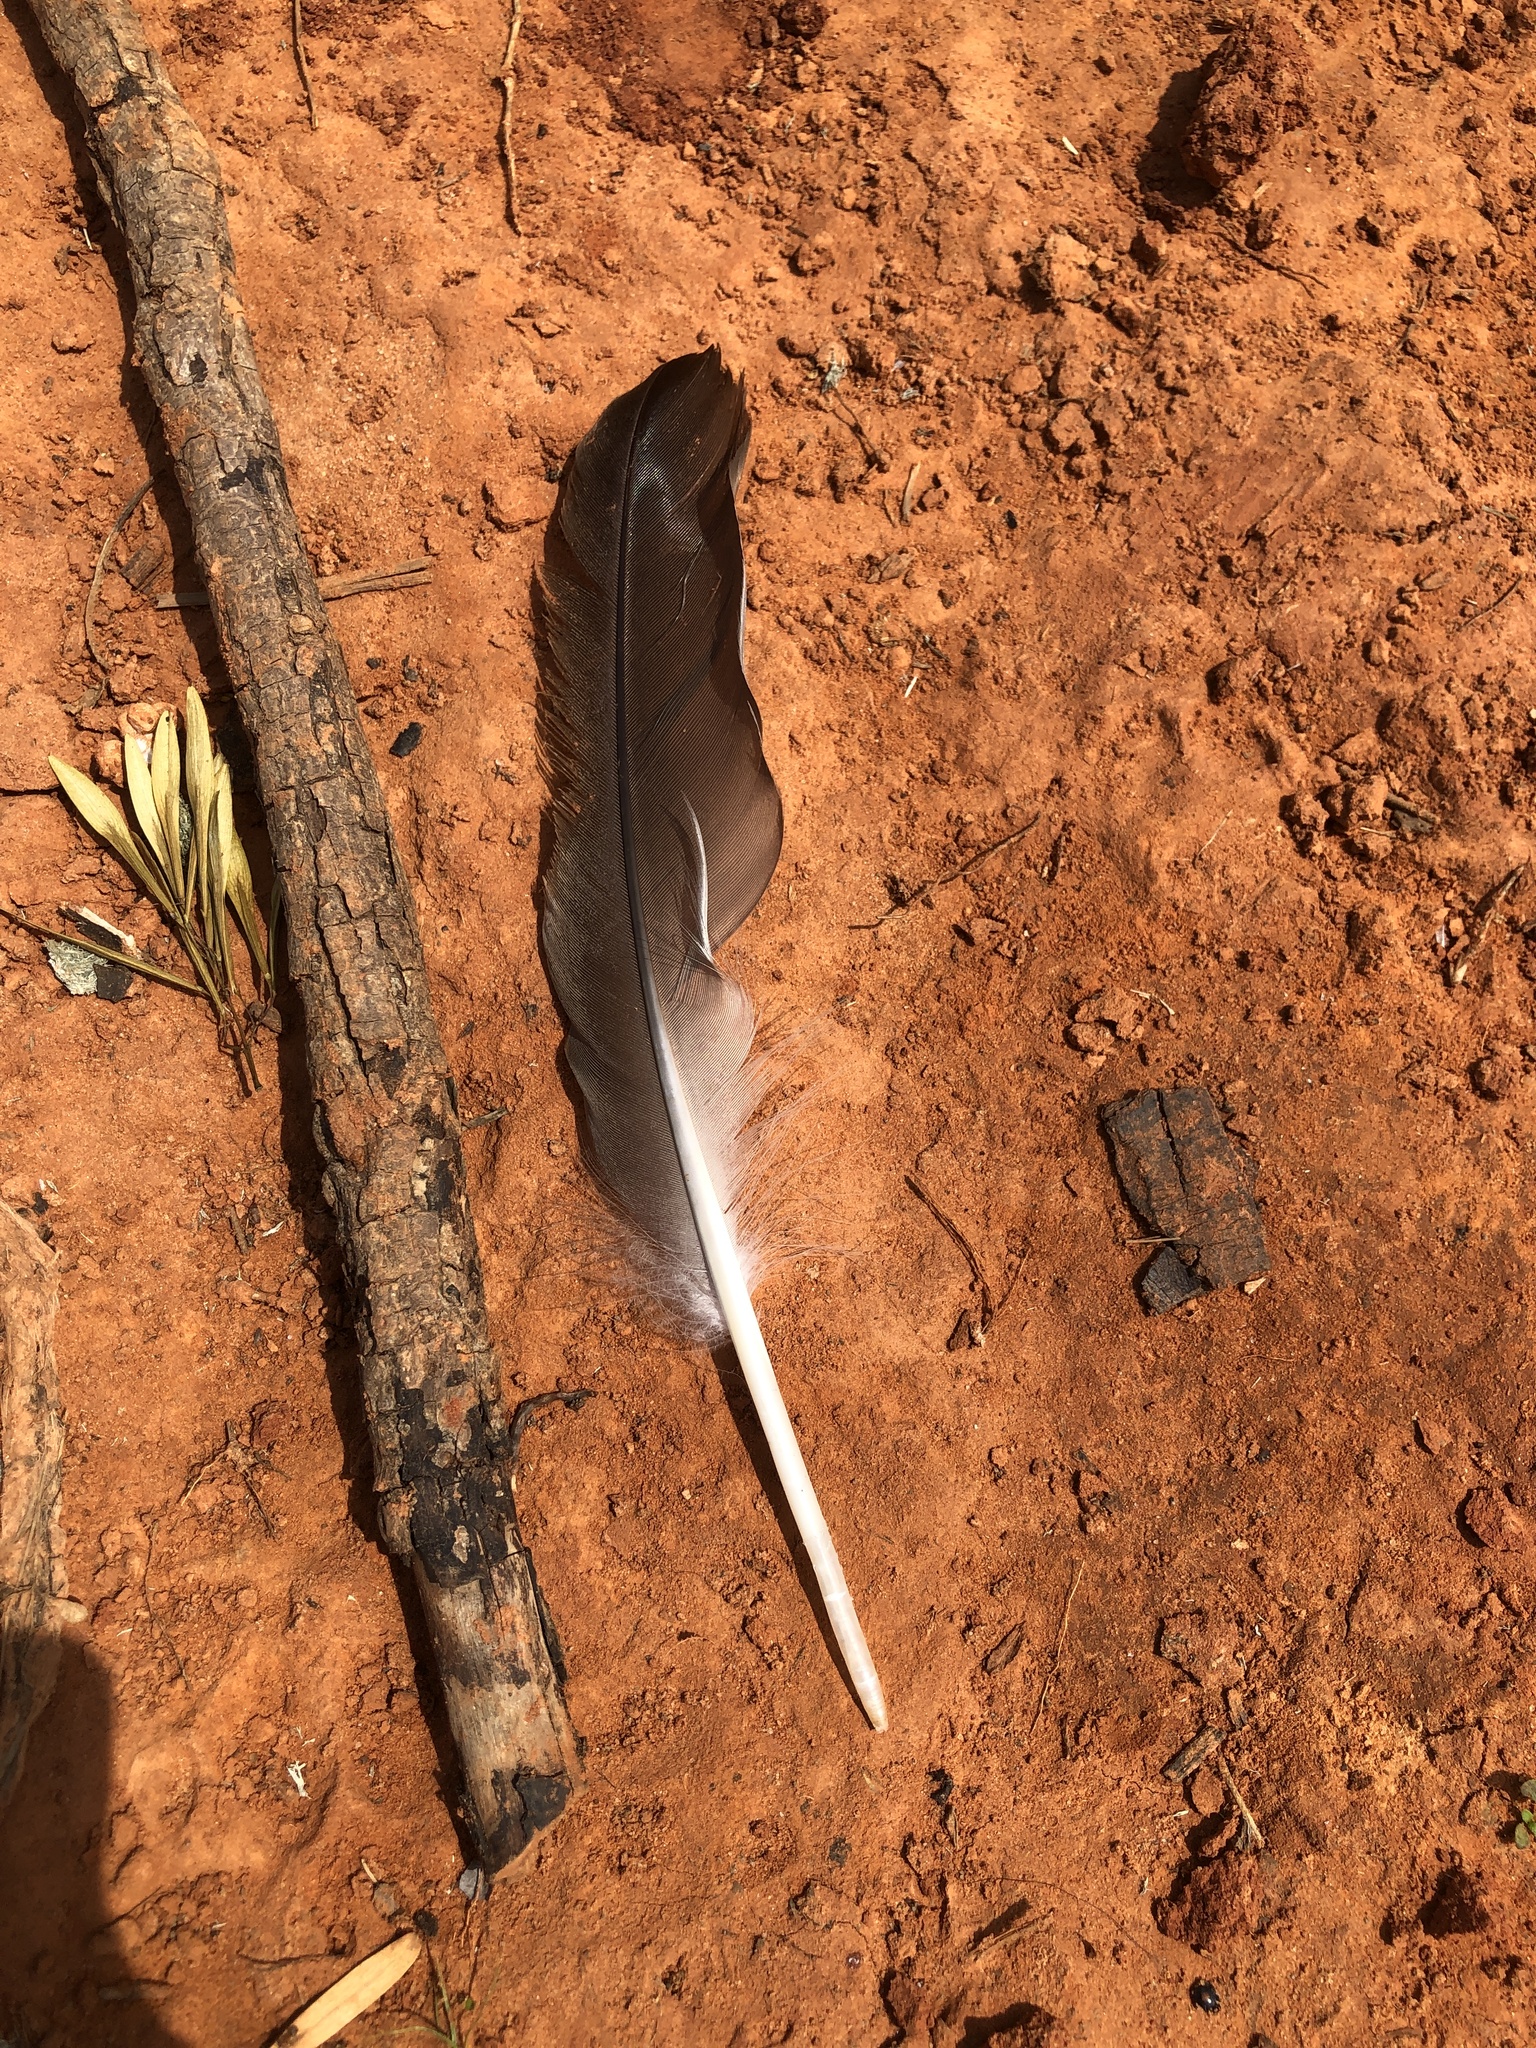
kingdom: Animalia
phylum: Chordata
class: Aves
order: Anseriformes
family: Anatidae
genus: Branta
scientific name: Branta canadensis
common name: Canada goose
